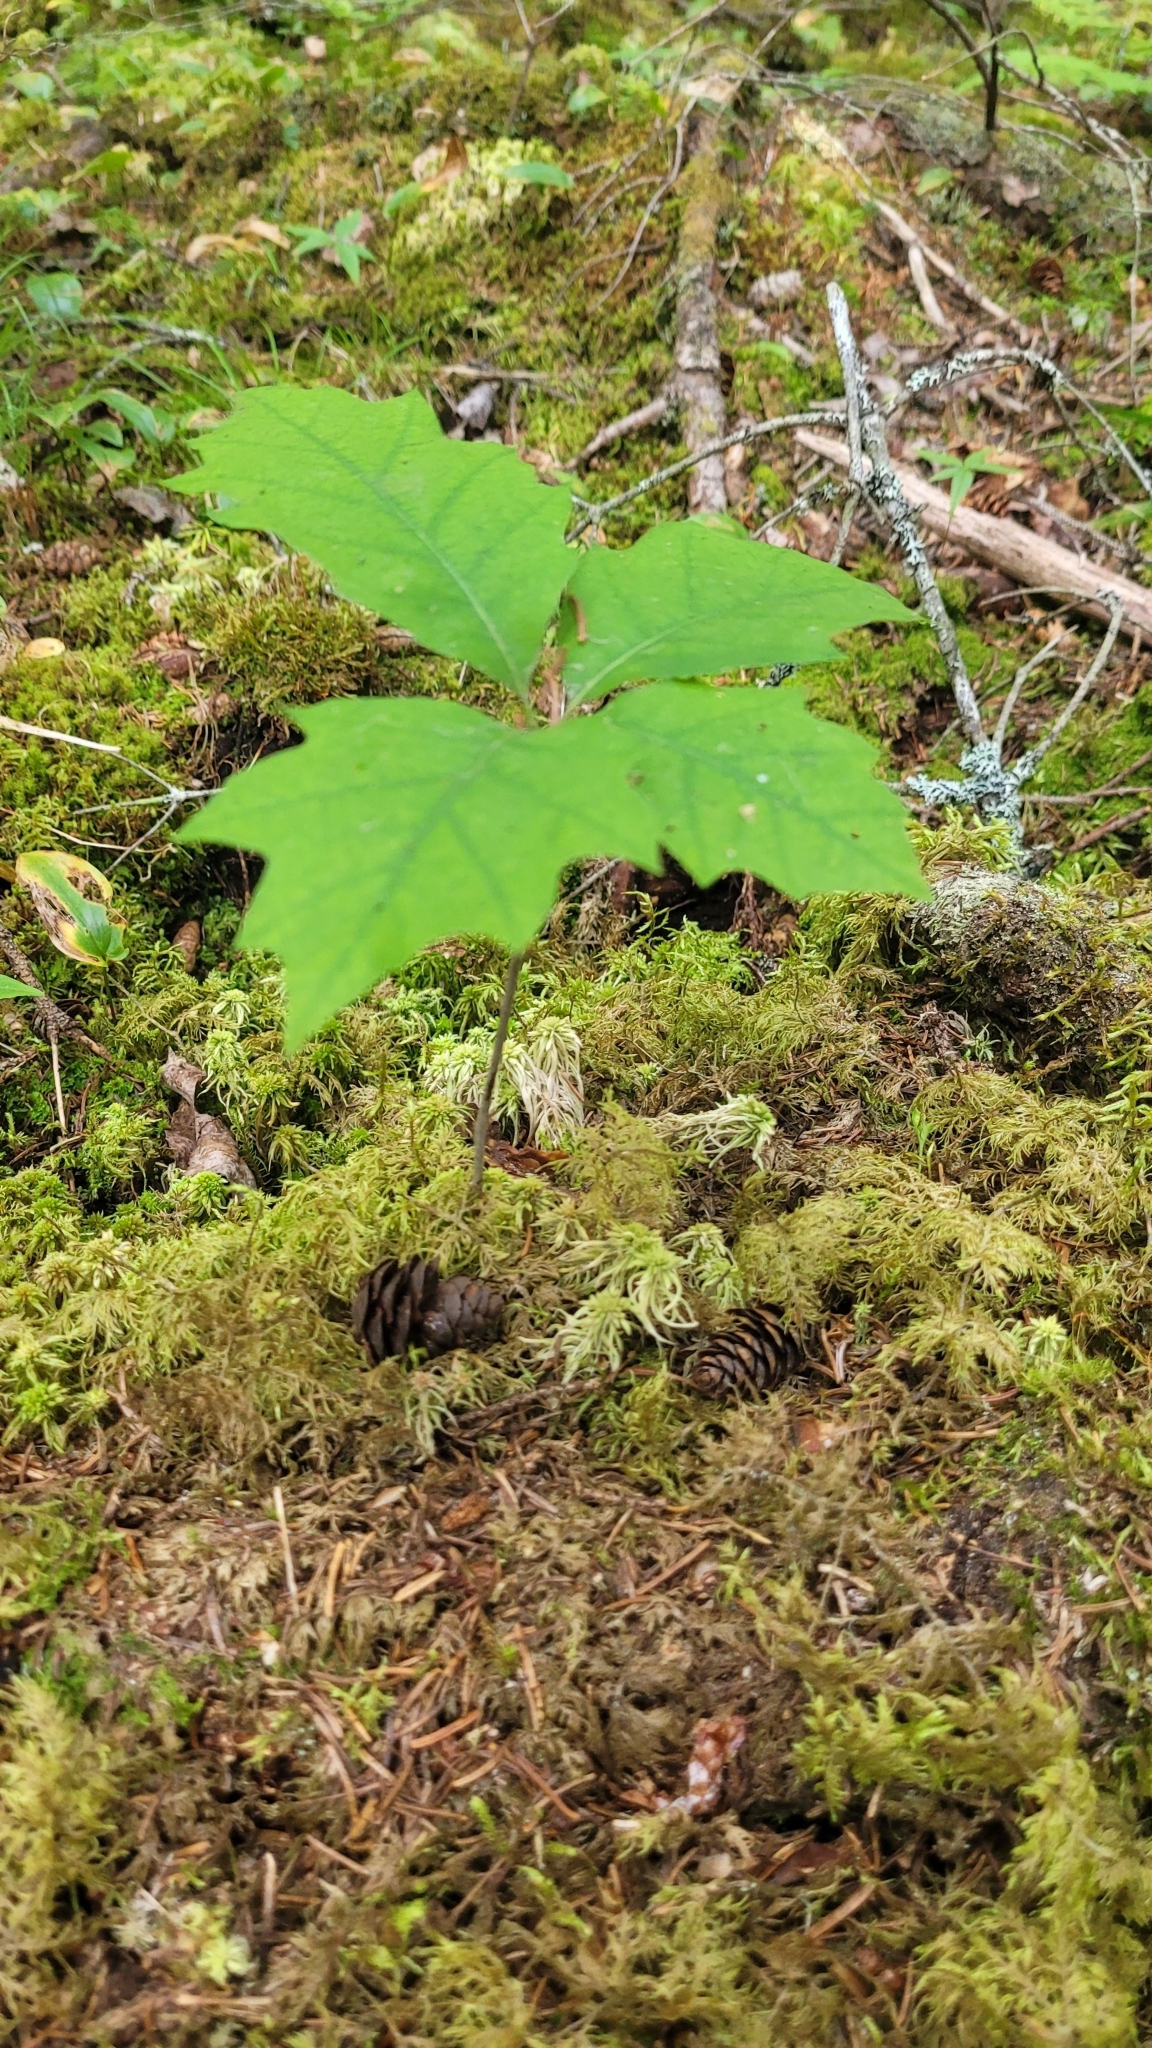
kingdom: Plantae
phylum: Tracheophyta
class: Magnoliopsida
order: Fagales
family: Fagaceae
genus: Quercus
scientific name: Quercus rubra
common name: Red oak
